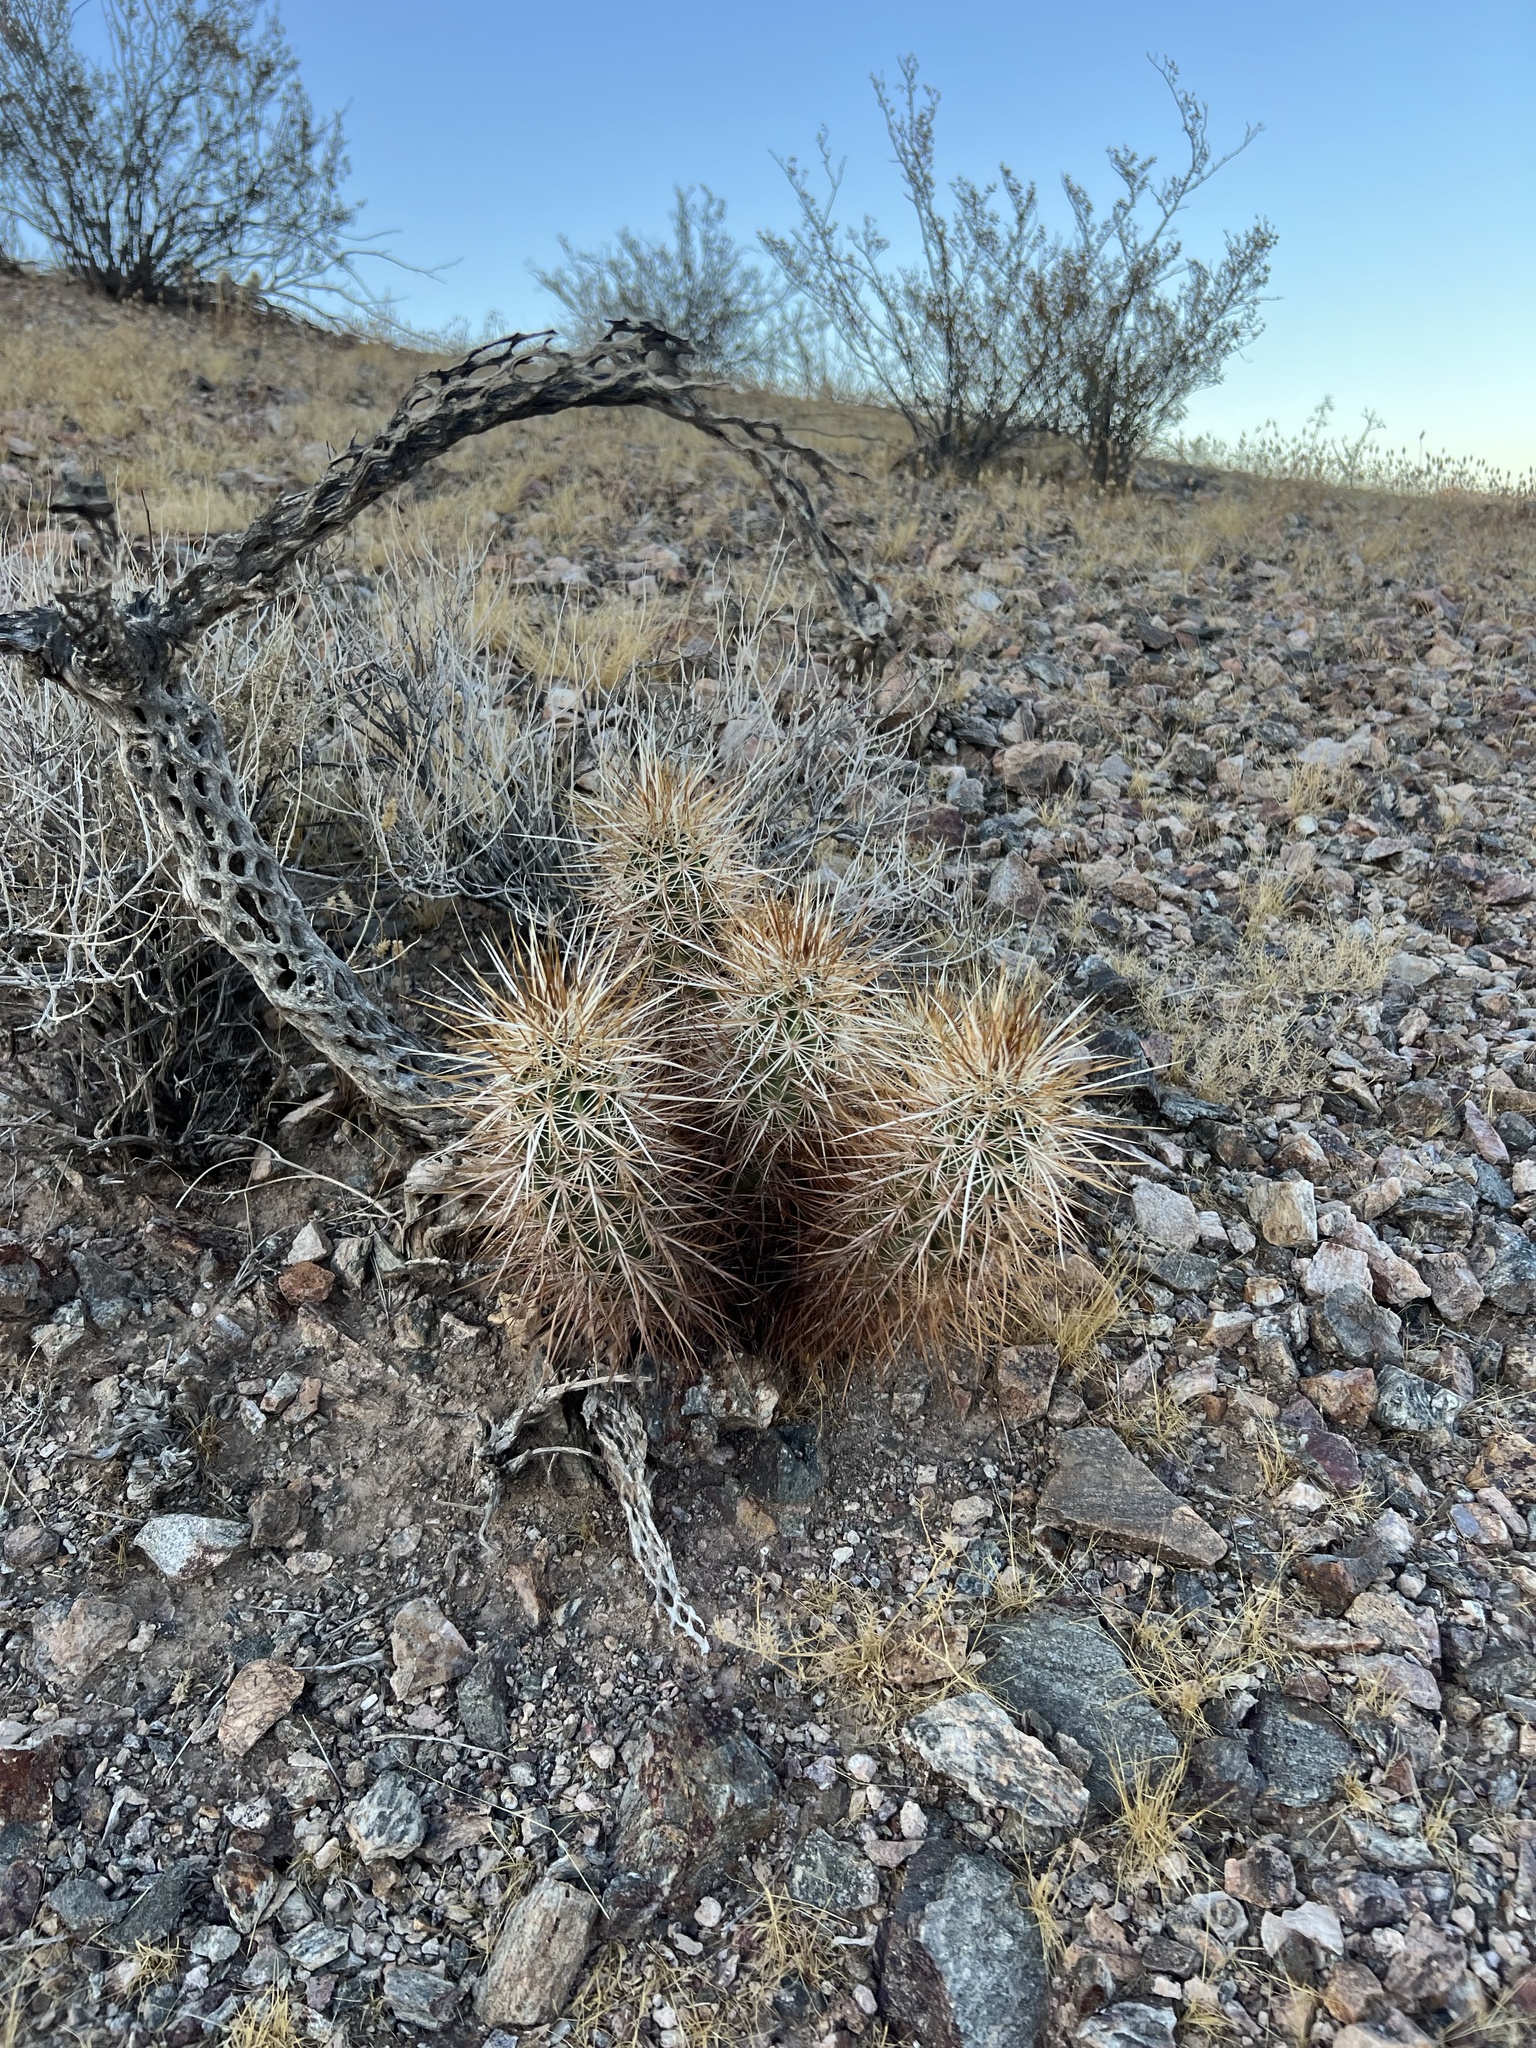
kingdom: Plantae
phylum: Tracheophyta
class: Magnoliopsida
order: Caryophyllales
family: Cactaceae
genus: Echinocereus
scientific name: Echinocereus engelmannii
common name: Engelmann's hedgehog cactus
